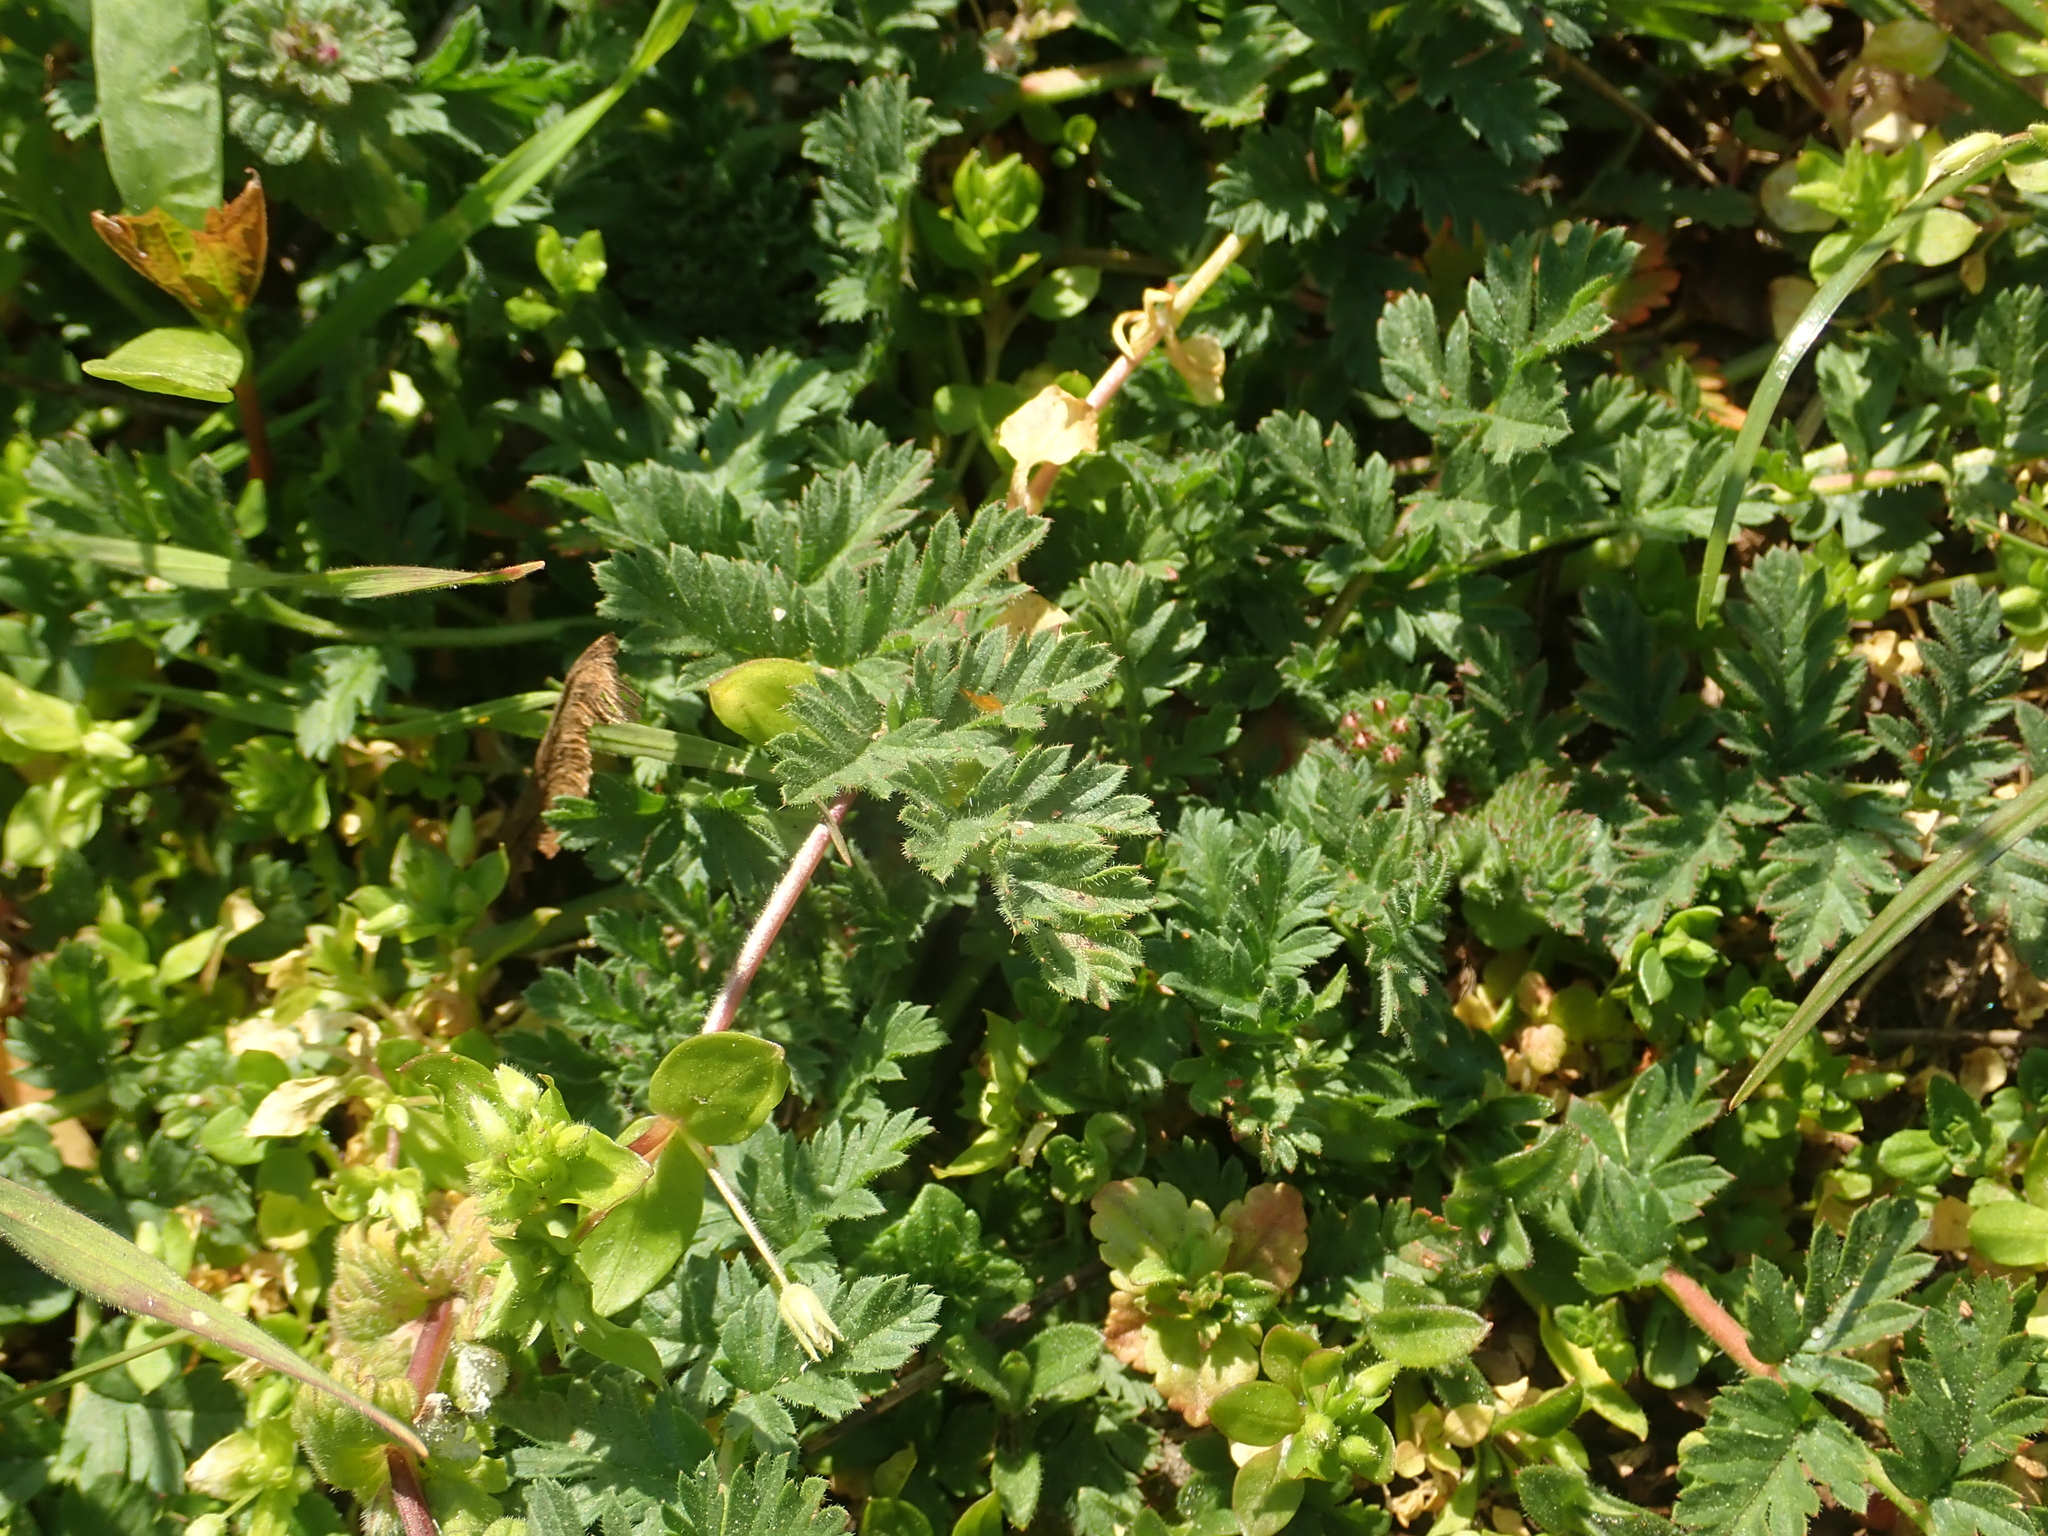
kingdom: Plantae
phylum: Tracheophyta
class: Magnoliopsida
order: Geraniales
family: Geraniaceae
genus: Erodium
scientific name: Erodium cicutarium
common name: Common stork's-bill
